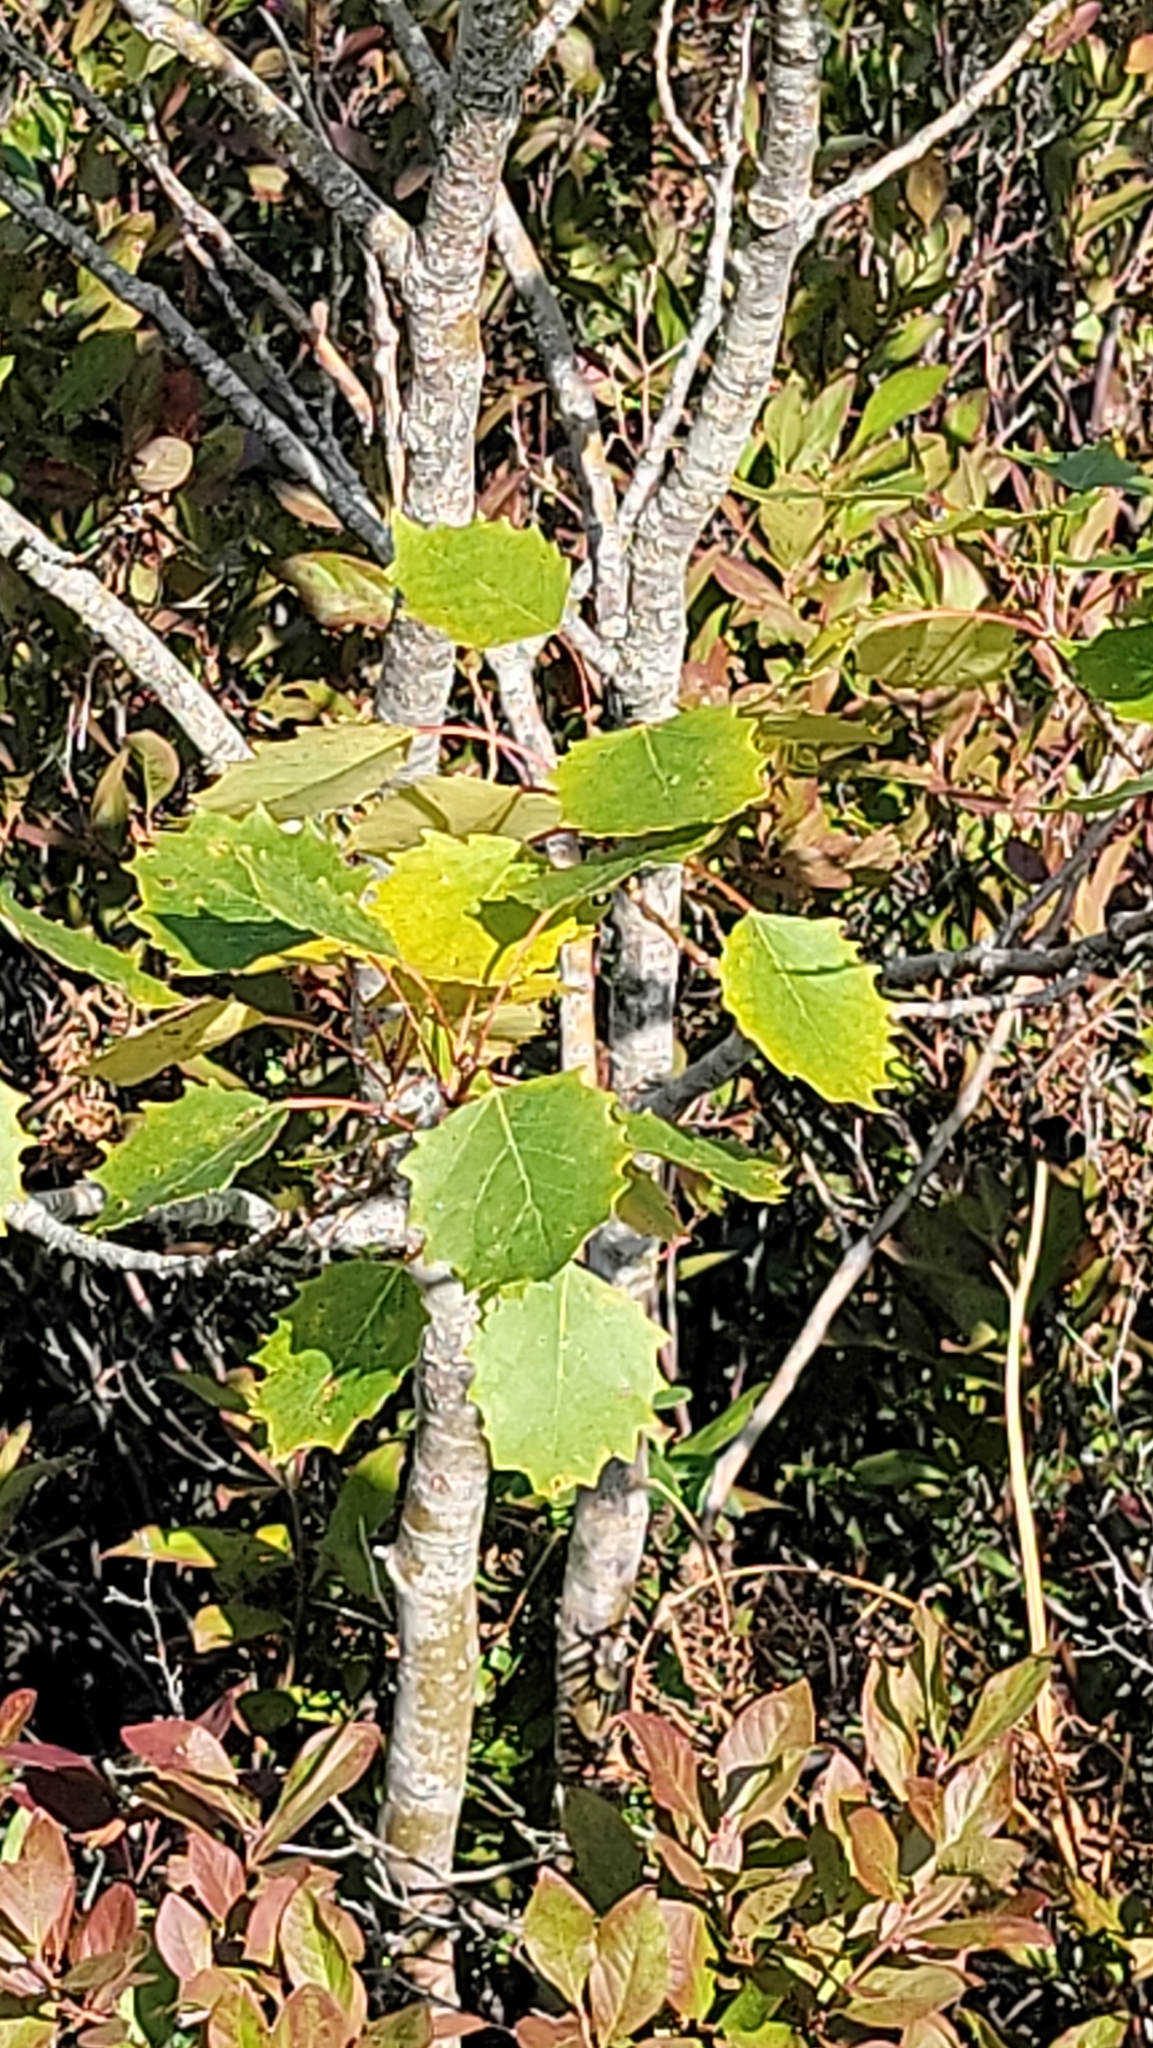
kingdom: Plantae
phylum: Tracheophyta
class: Magnoliopsida
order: Malpighiales
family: Salicaceae
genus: Populus
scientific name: Populus grandidentata
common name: Bigtooth aspen
